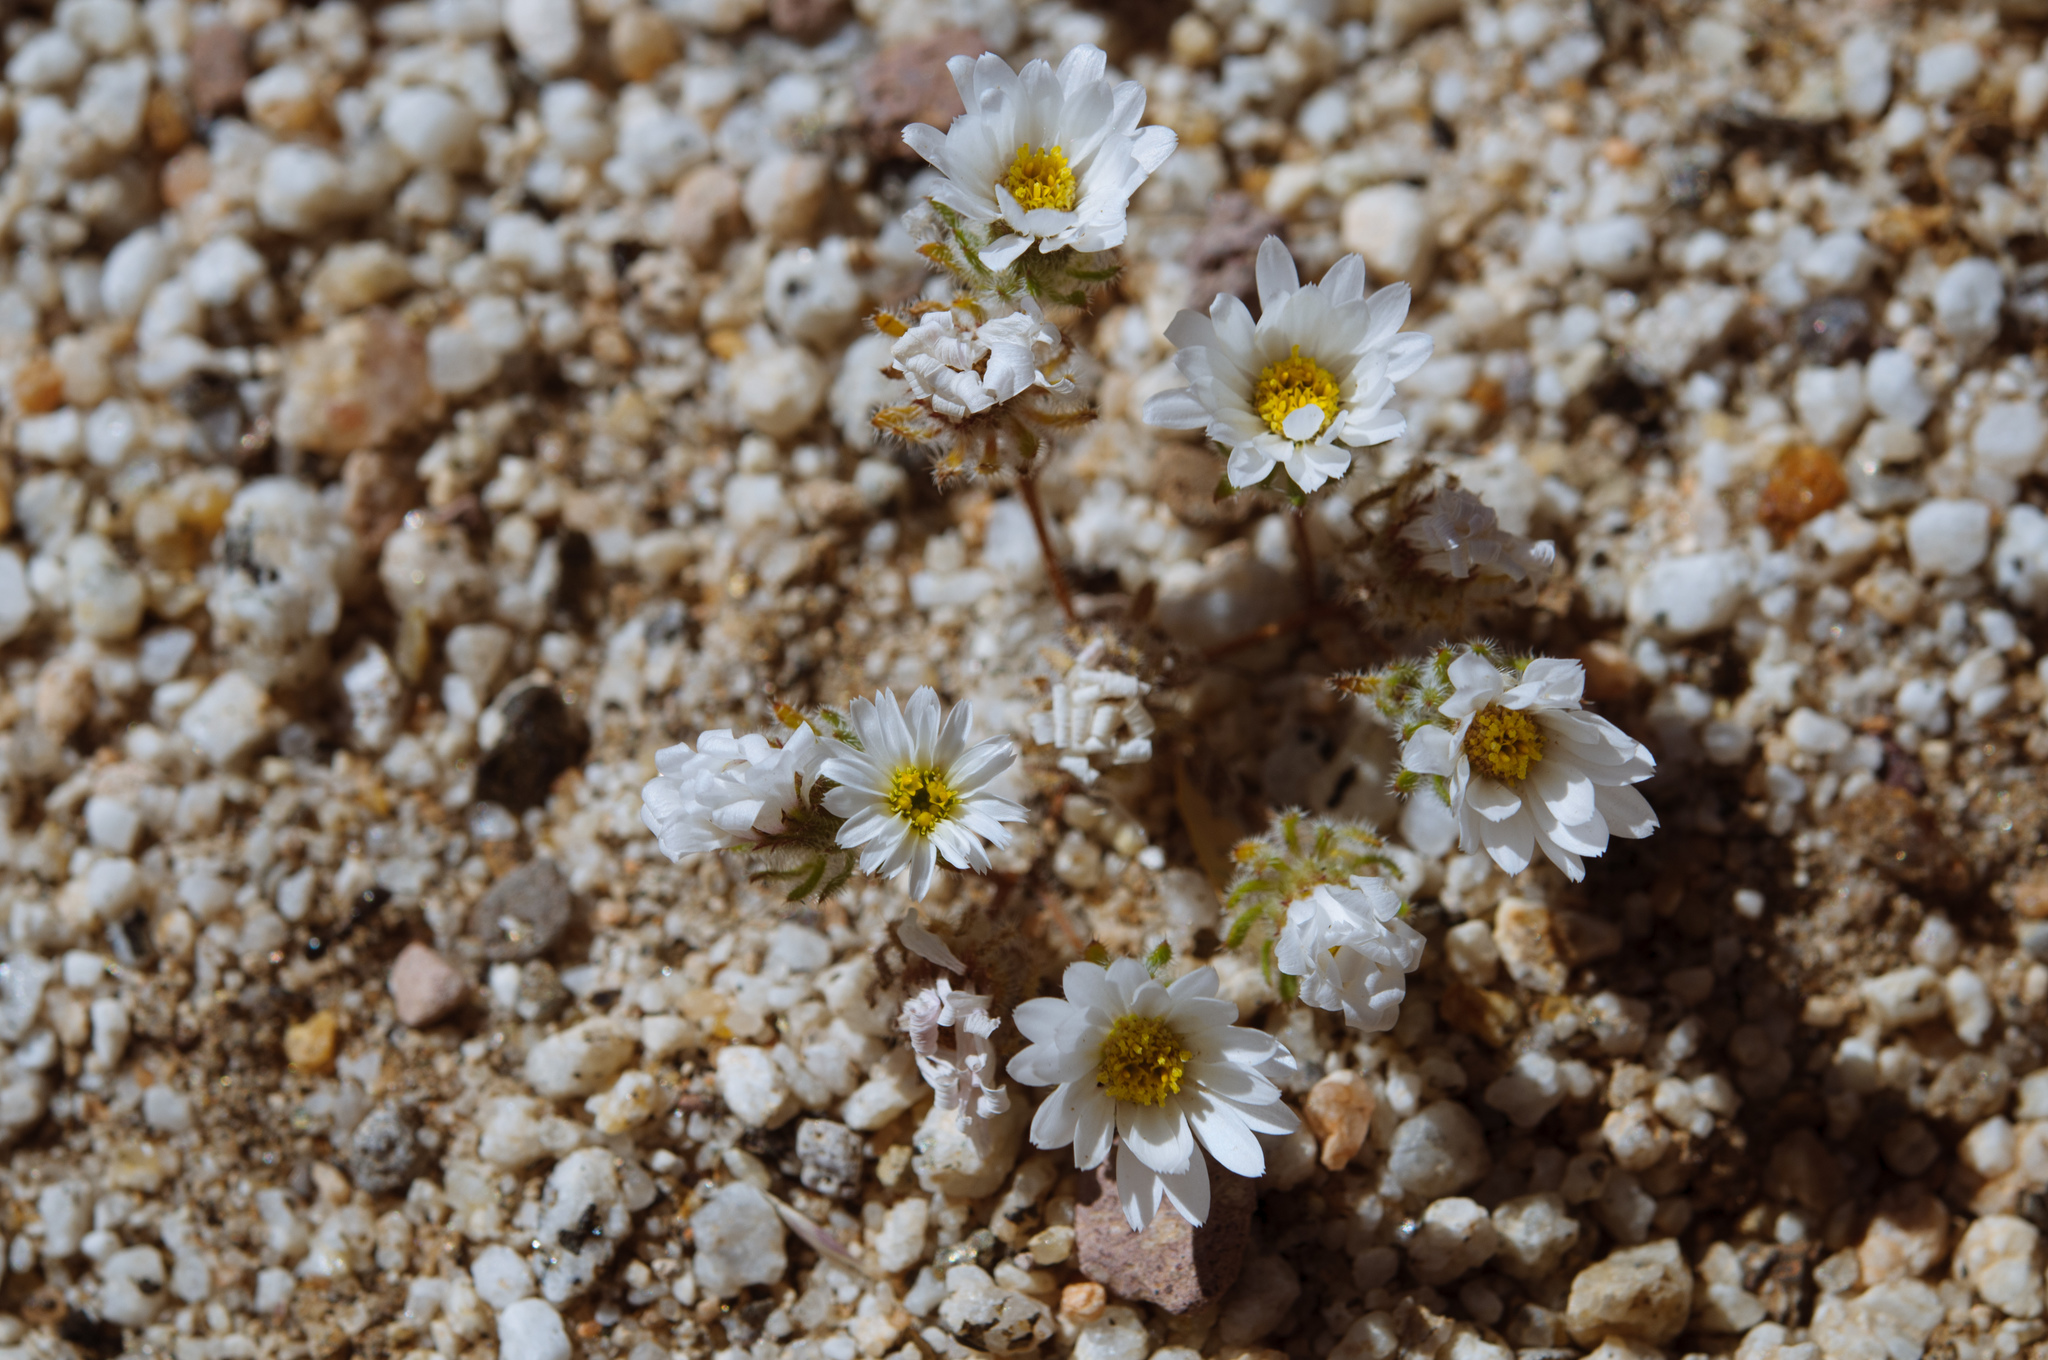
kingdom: Plantae
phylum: Tracheophyta
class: Magnoliopsida
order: Asterales
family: Asteraceae
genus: Monoptilon
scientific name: Monoptilon bellioides
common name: Bristly desertstar
